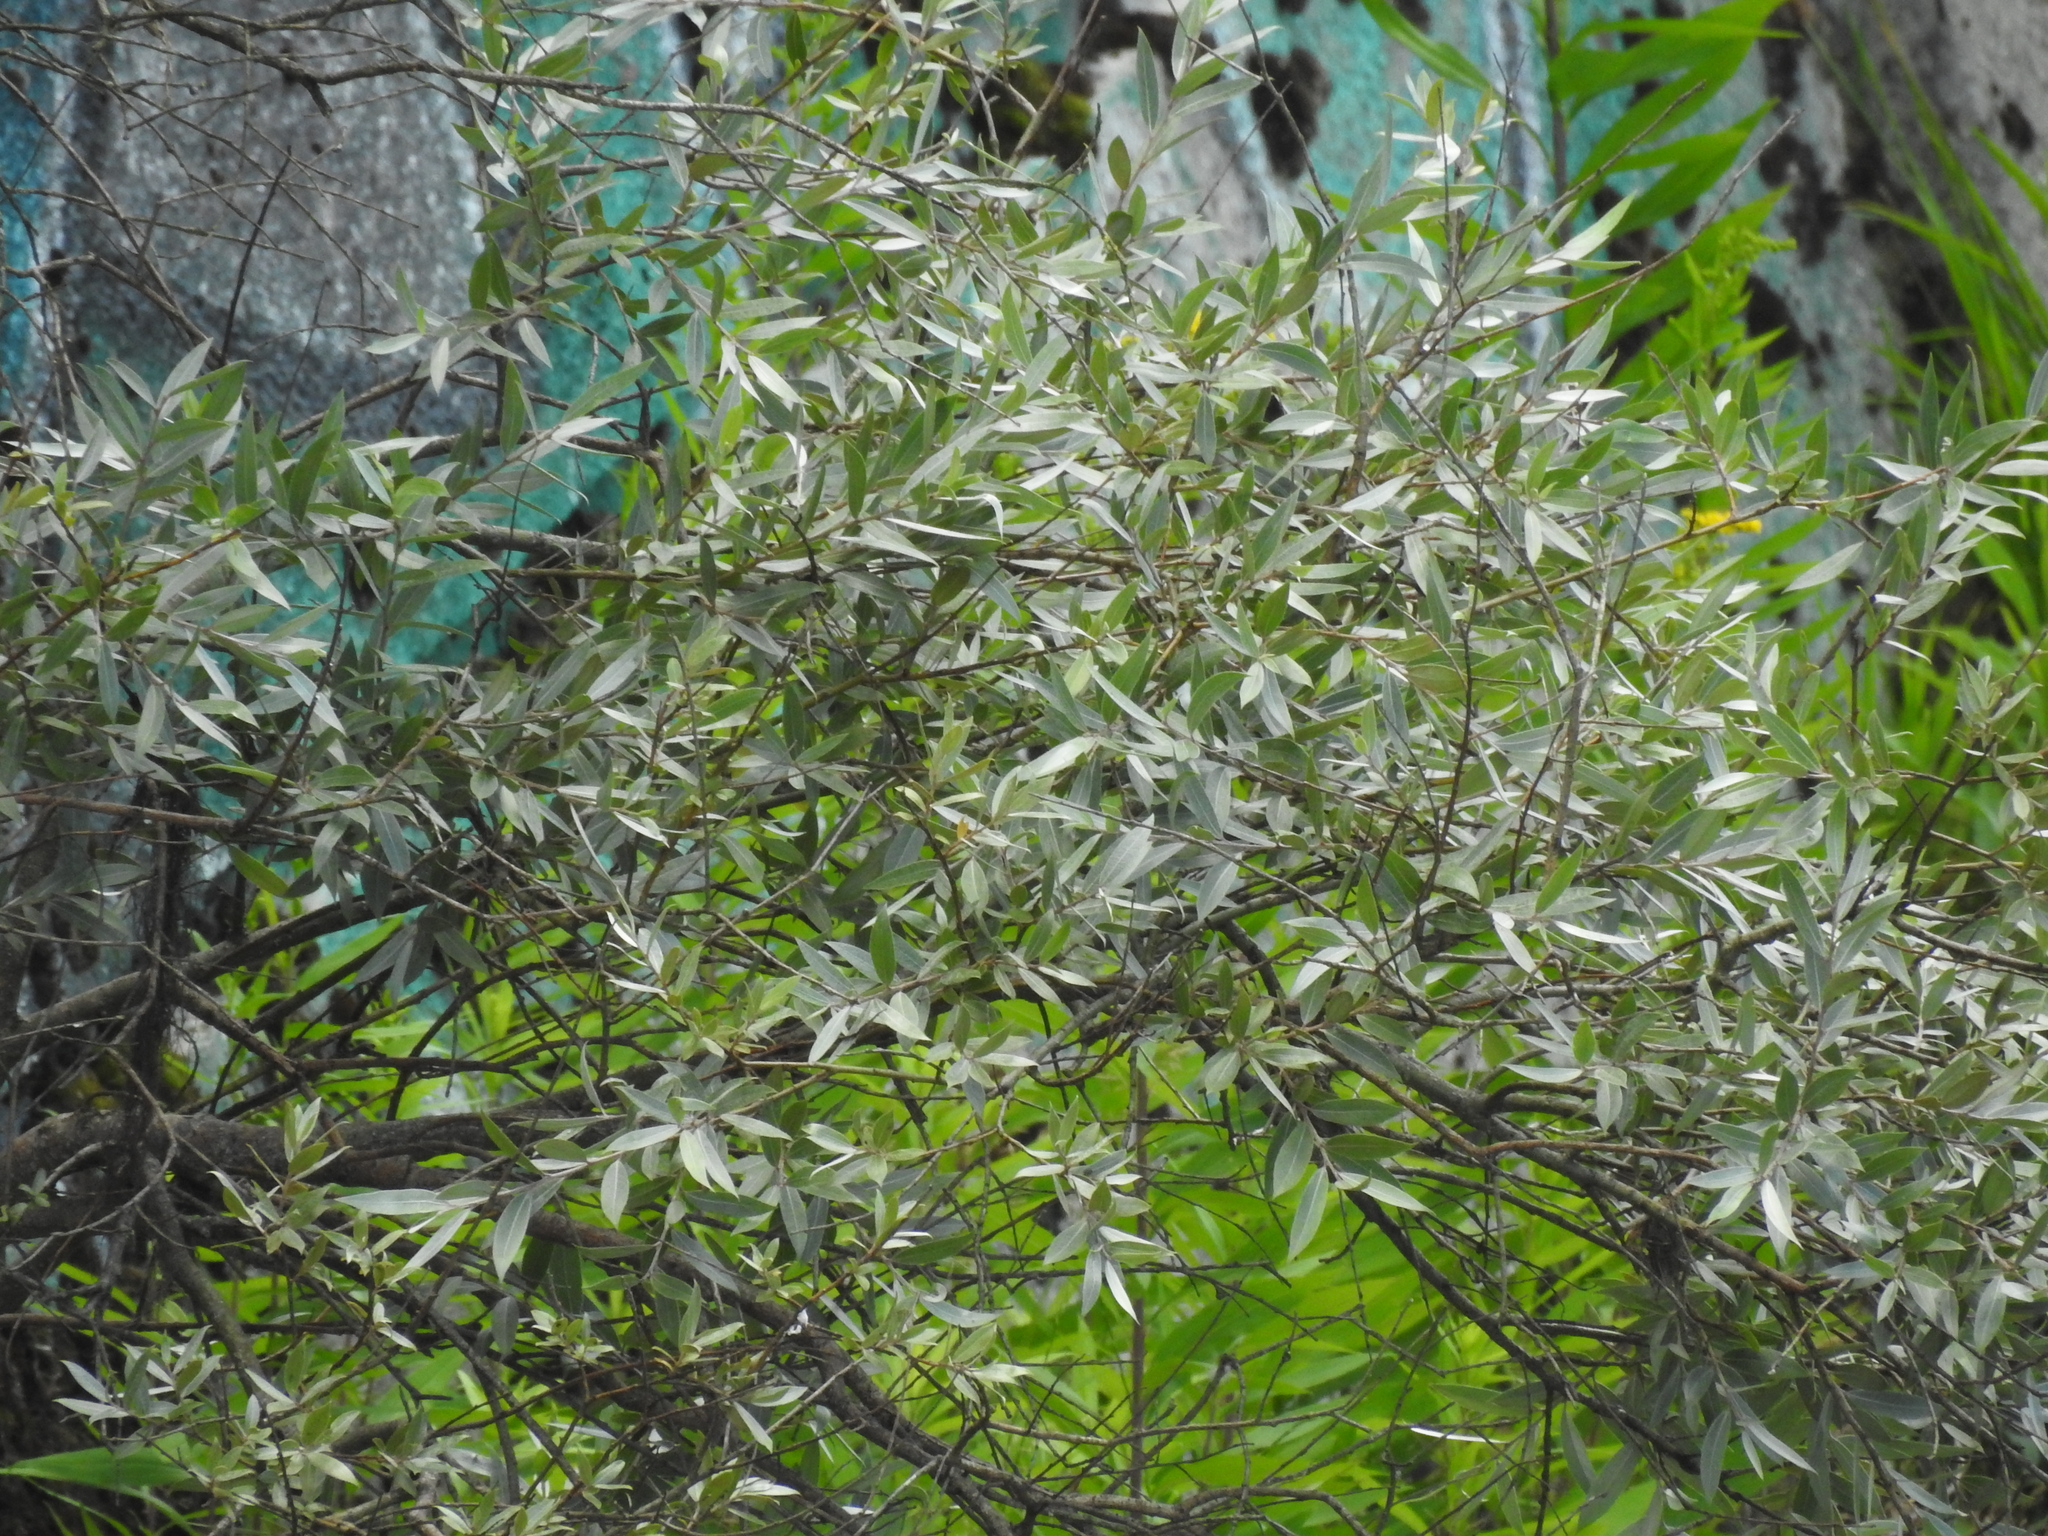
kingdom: Plantae
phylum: Tracheophyta
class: Magnoliopsida
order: Malpighiales
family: Salicaceae
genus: Salix
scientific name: Salix alba
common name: White willow
